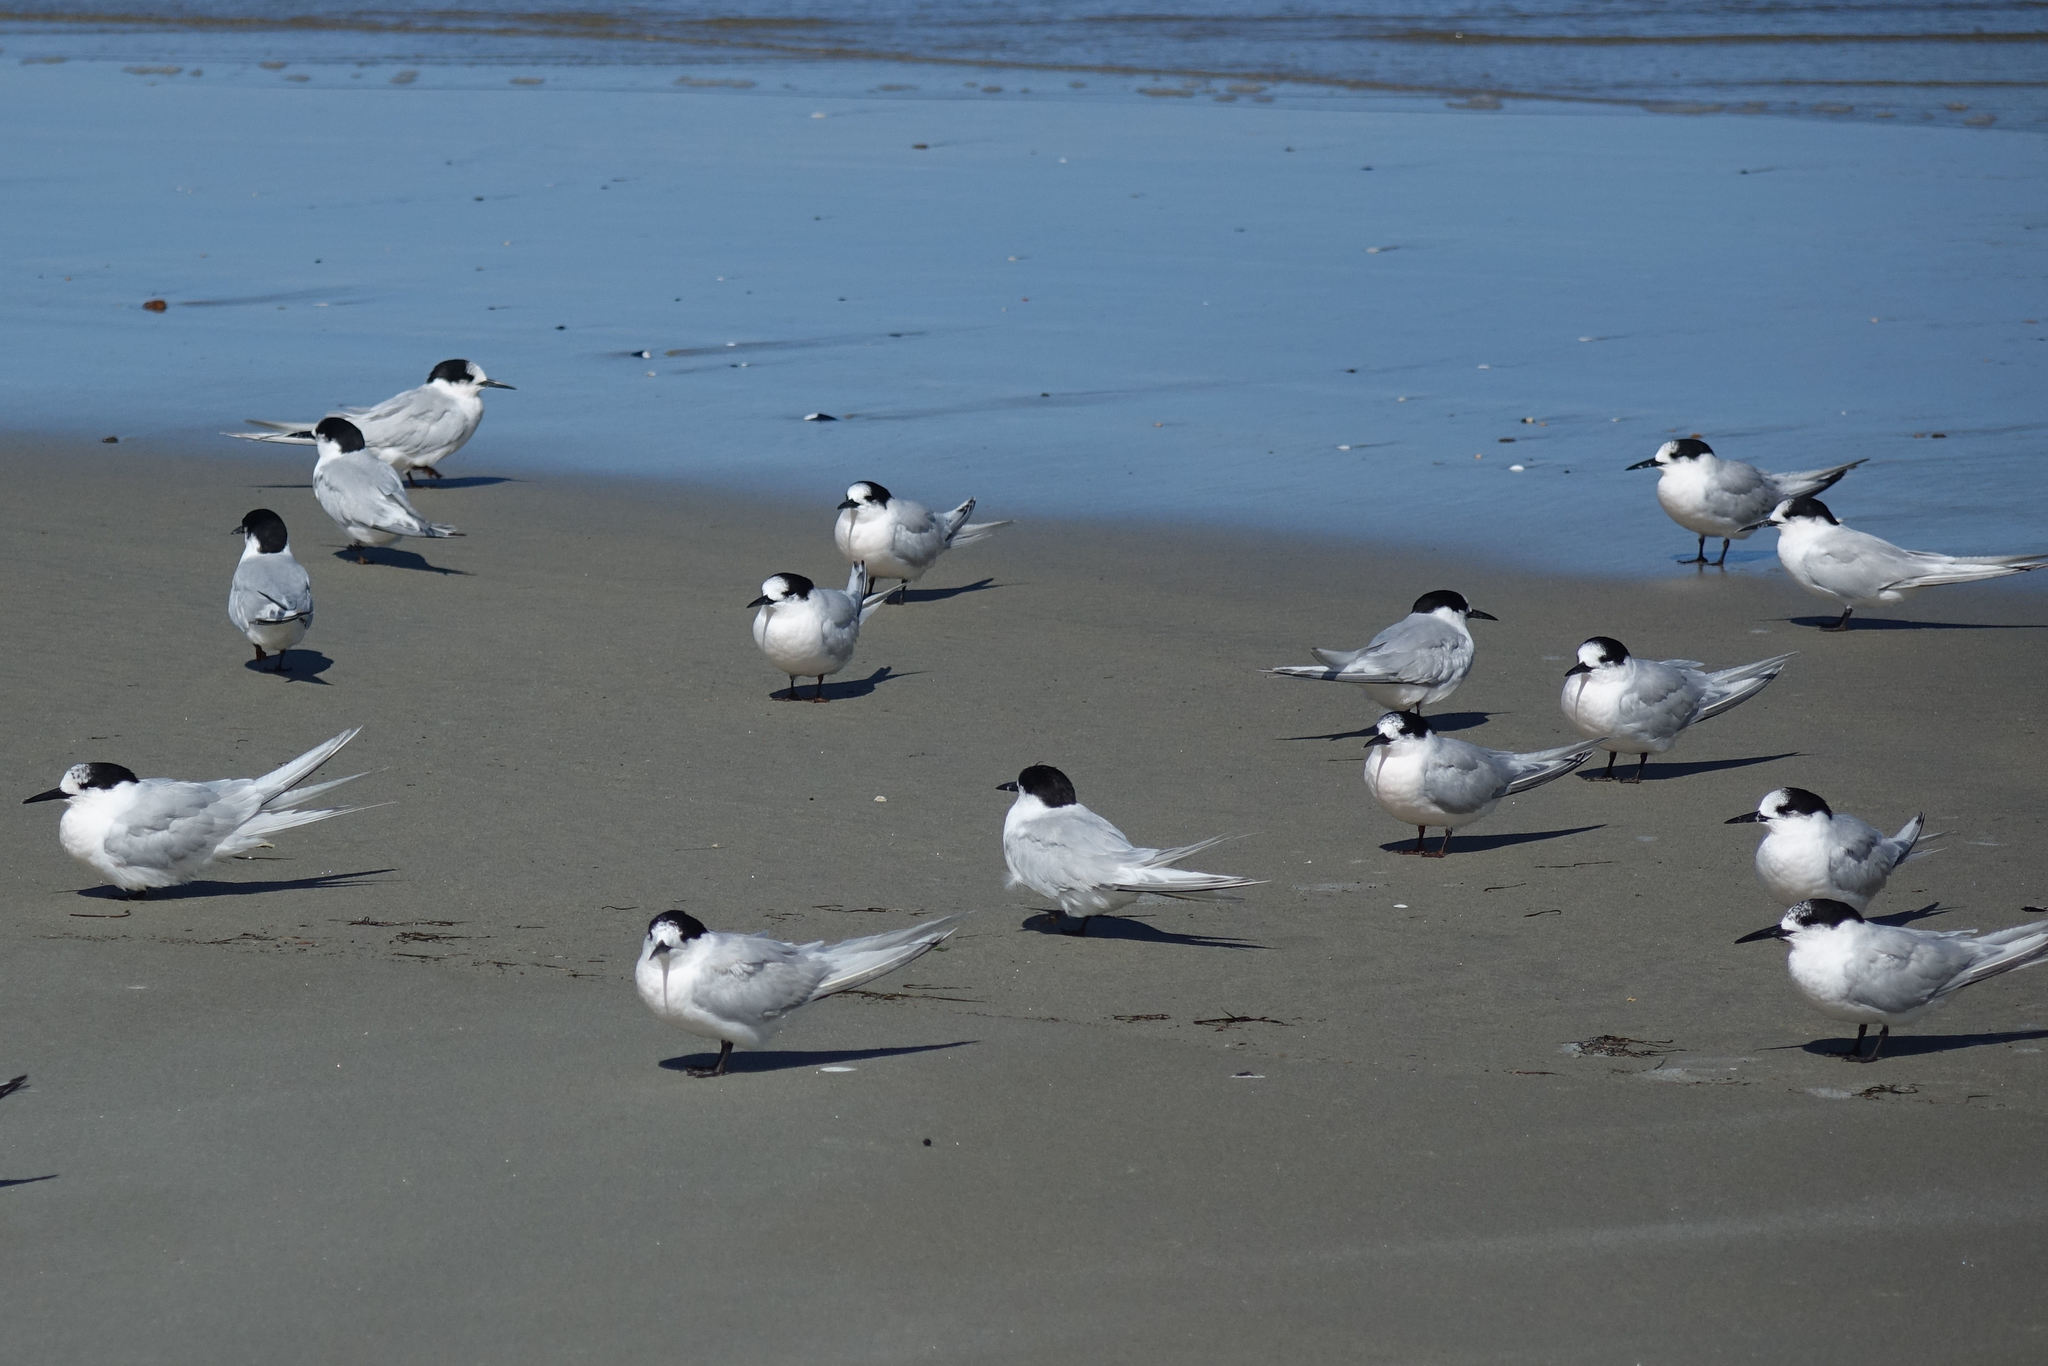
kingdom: Animalia
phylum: Chordata
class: Aves
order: Charadriiformes
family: Laridae
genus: Sterna
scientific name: Sterna striata
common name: White-fronted tern
